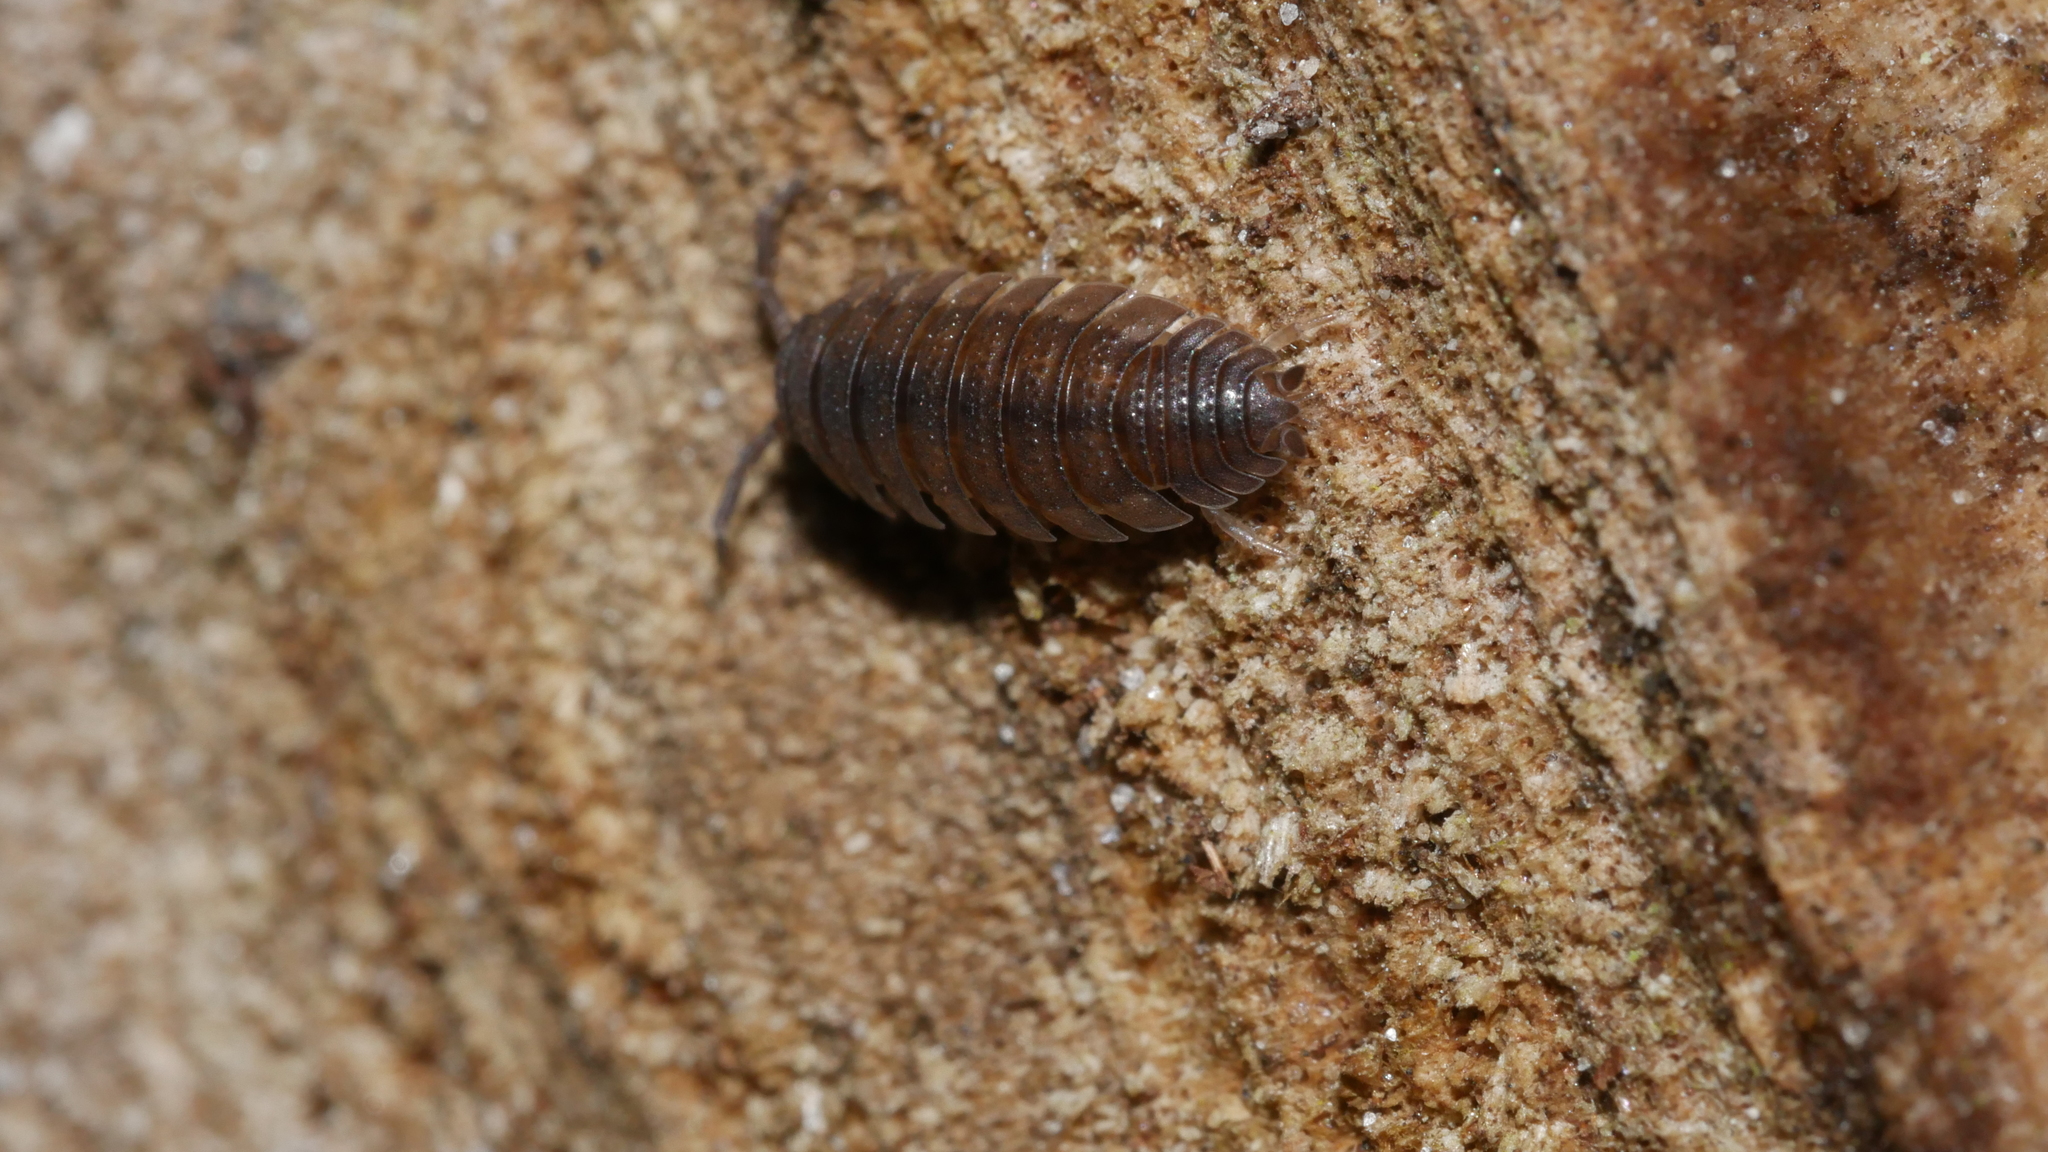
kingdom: Animalia
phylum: Arthropoda
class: Malacostraca
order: Isopoda
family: Porcellionidae
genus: Porcellio
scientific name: Porcellio scaber
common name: Common rough woodlouse
